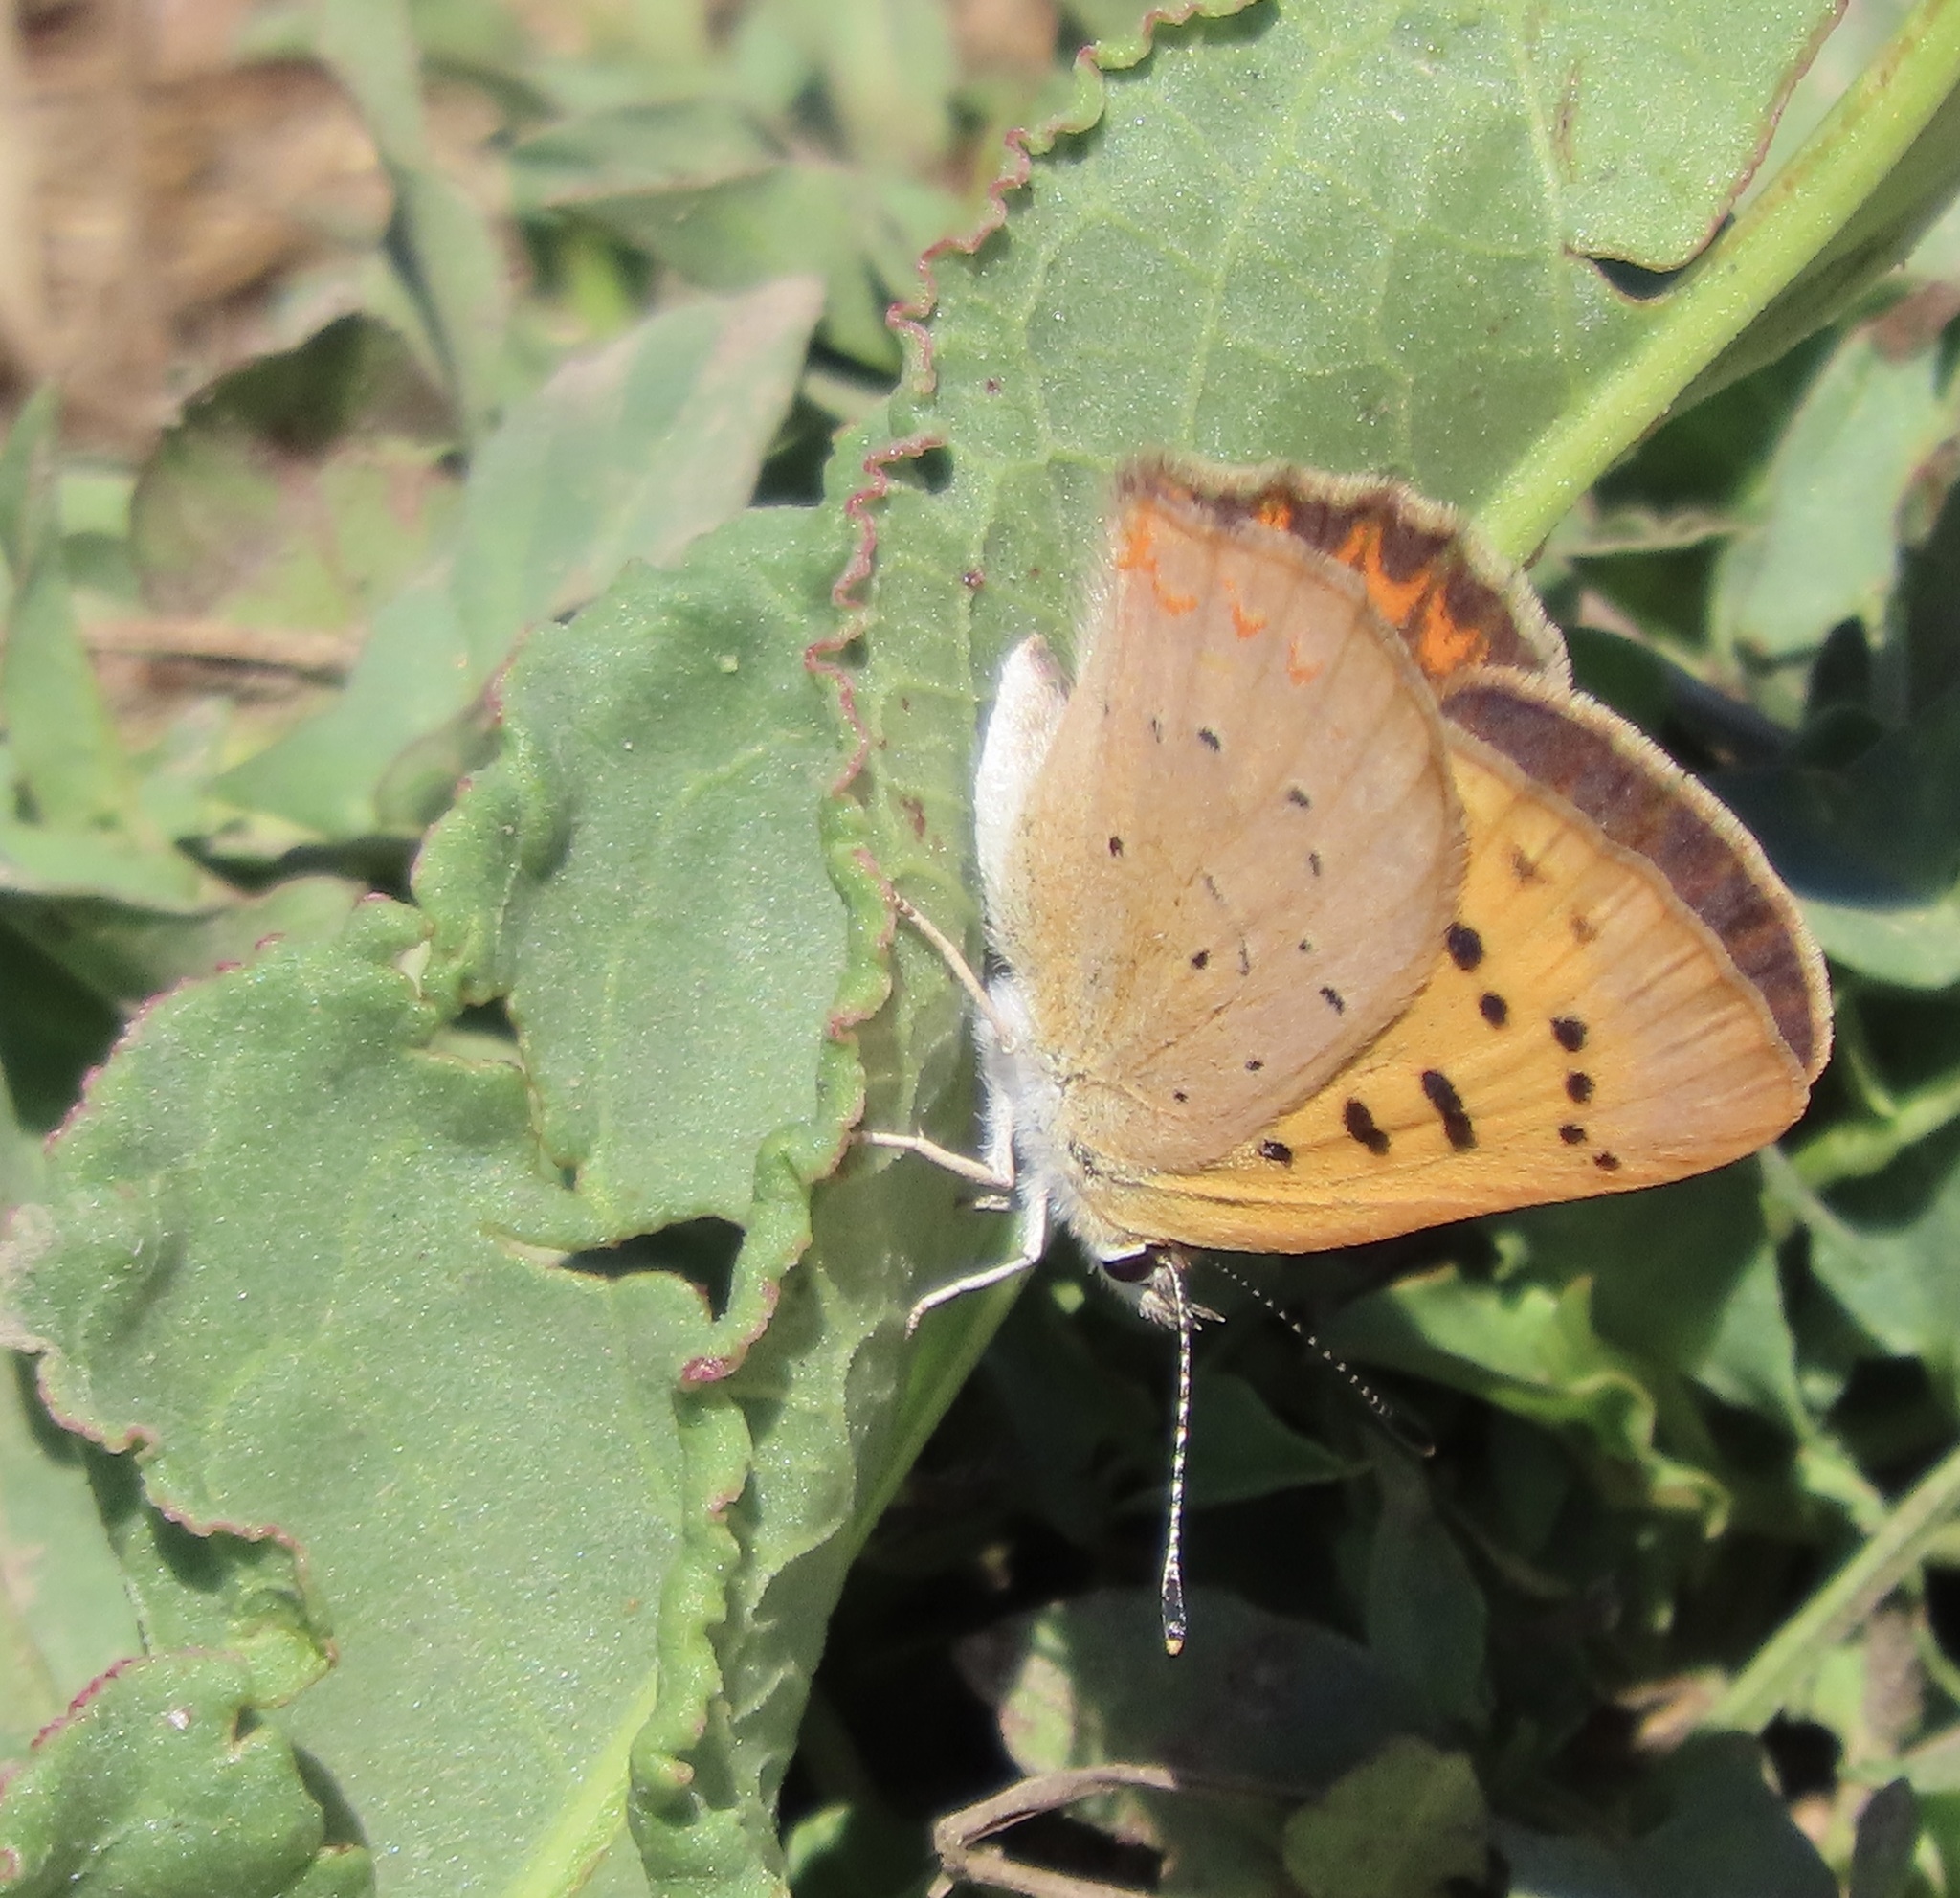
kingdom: Animalia
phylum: Arthropoda
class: Insecta
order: Lepidoptera
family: Lycaenidae
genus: Tharsalea
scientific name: Tharsalea helloides
